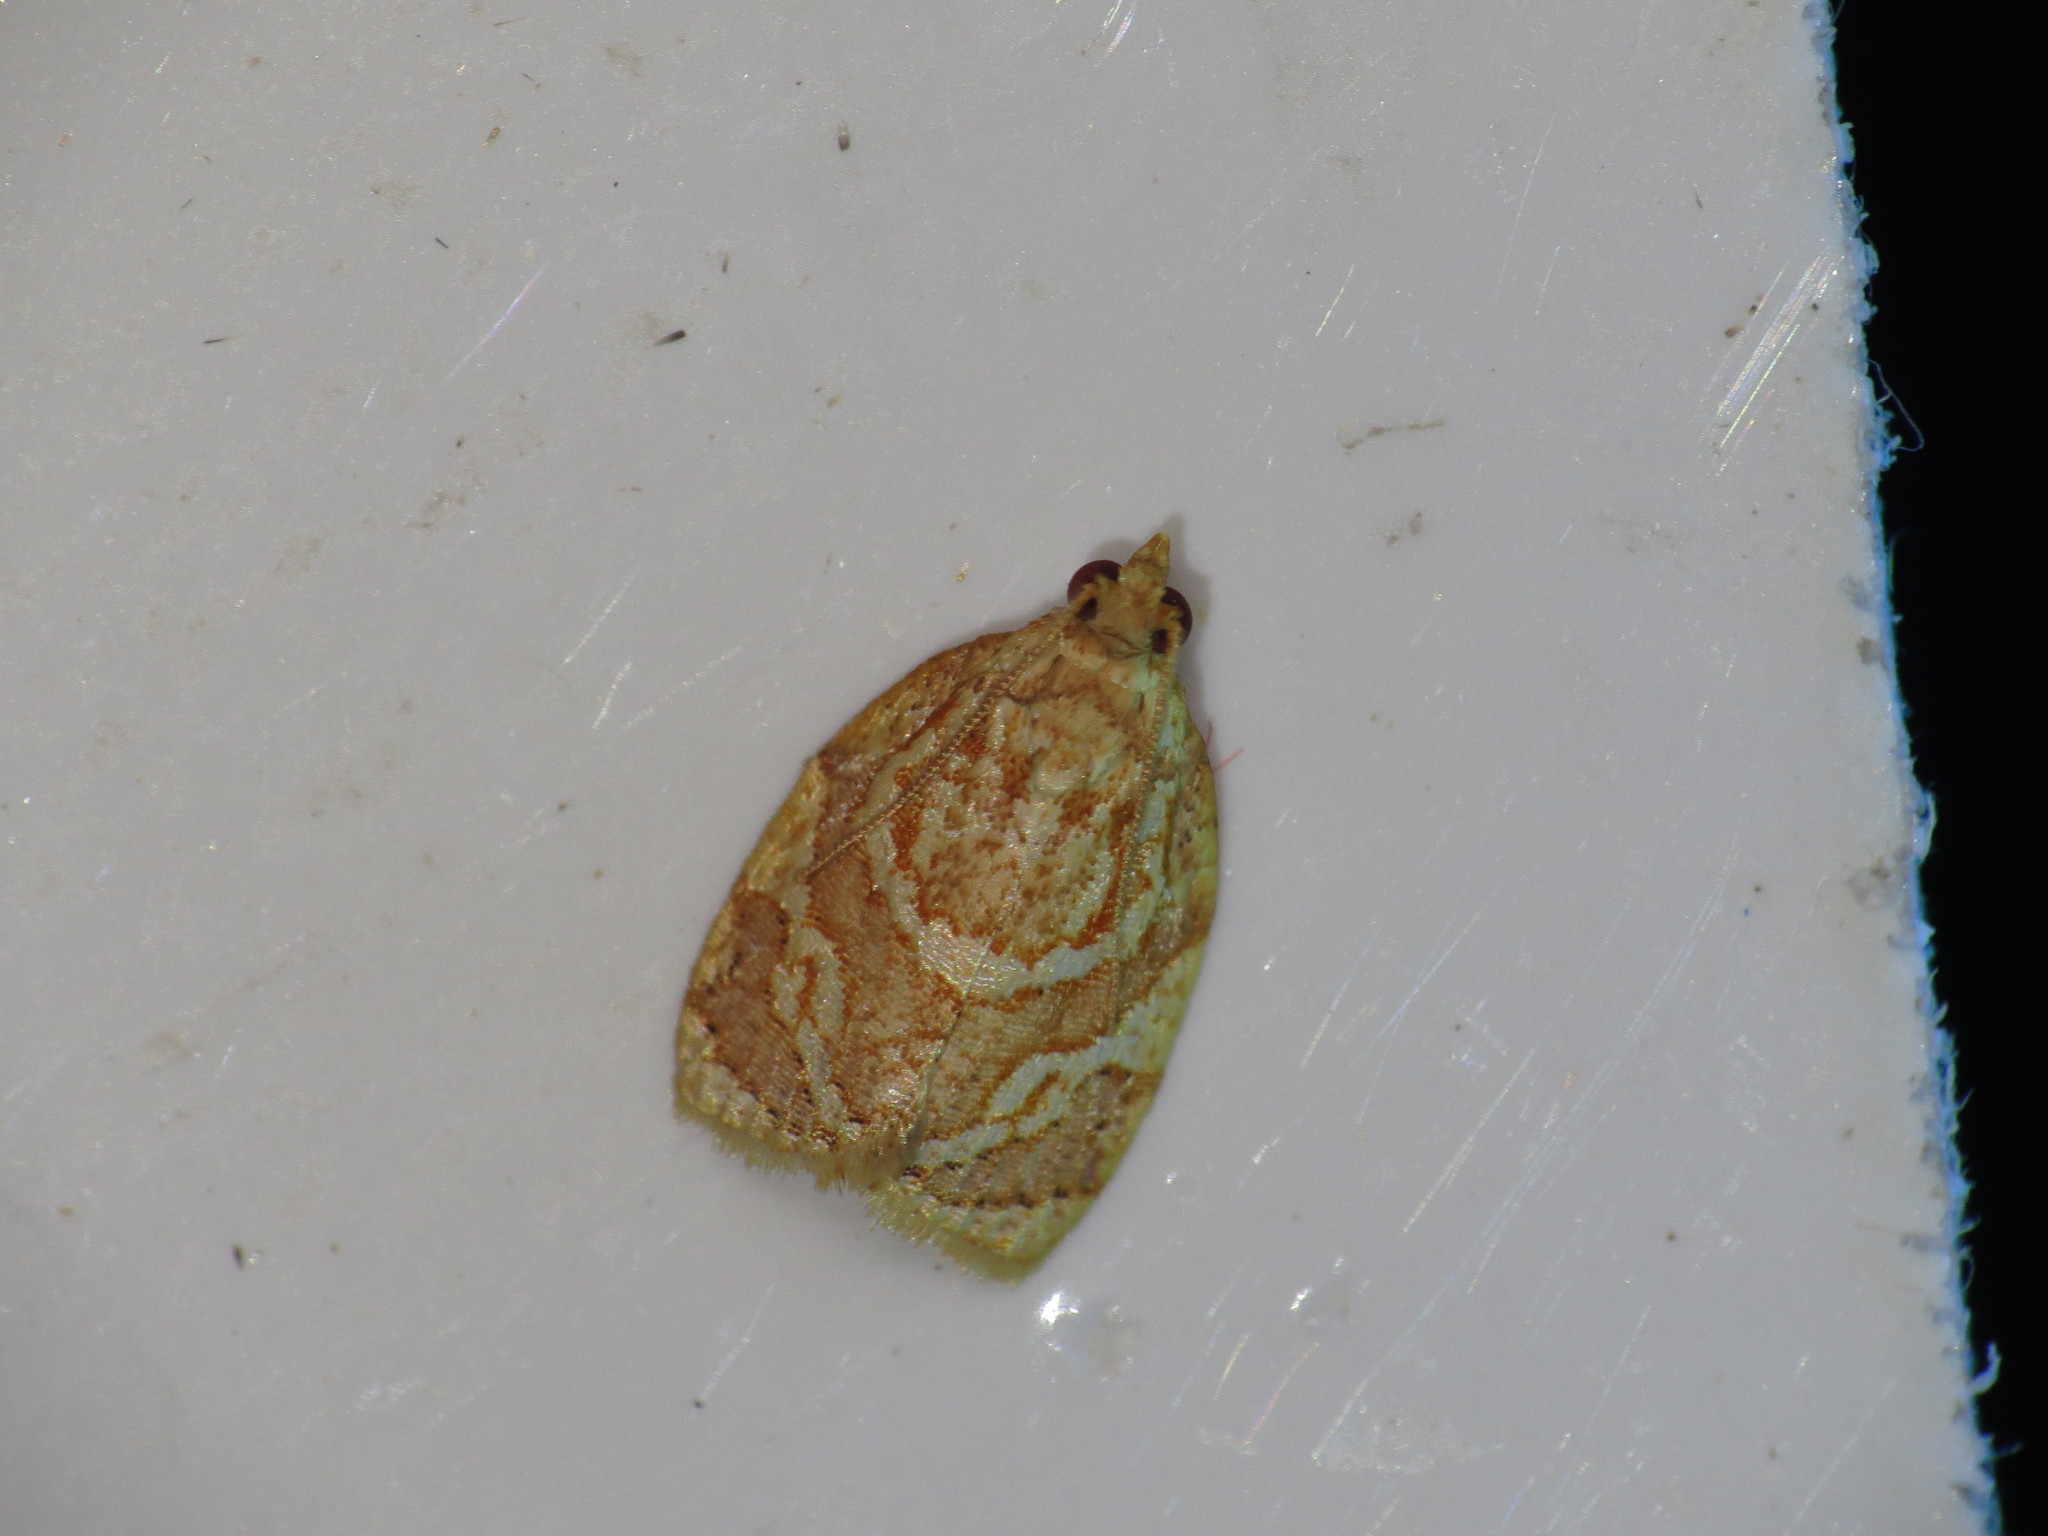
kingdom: Animalia
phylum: Arthropoda
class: Insecta
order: Lepidoptera
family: Tortricidae
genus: Adoxophyes
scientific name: Adoxophyes templana
